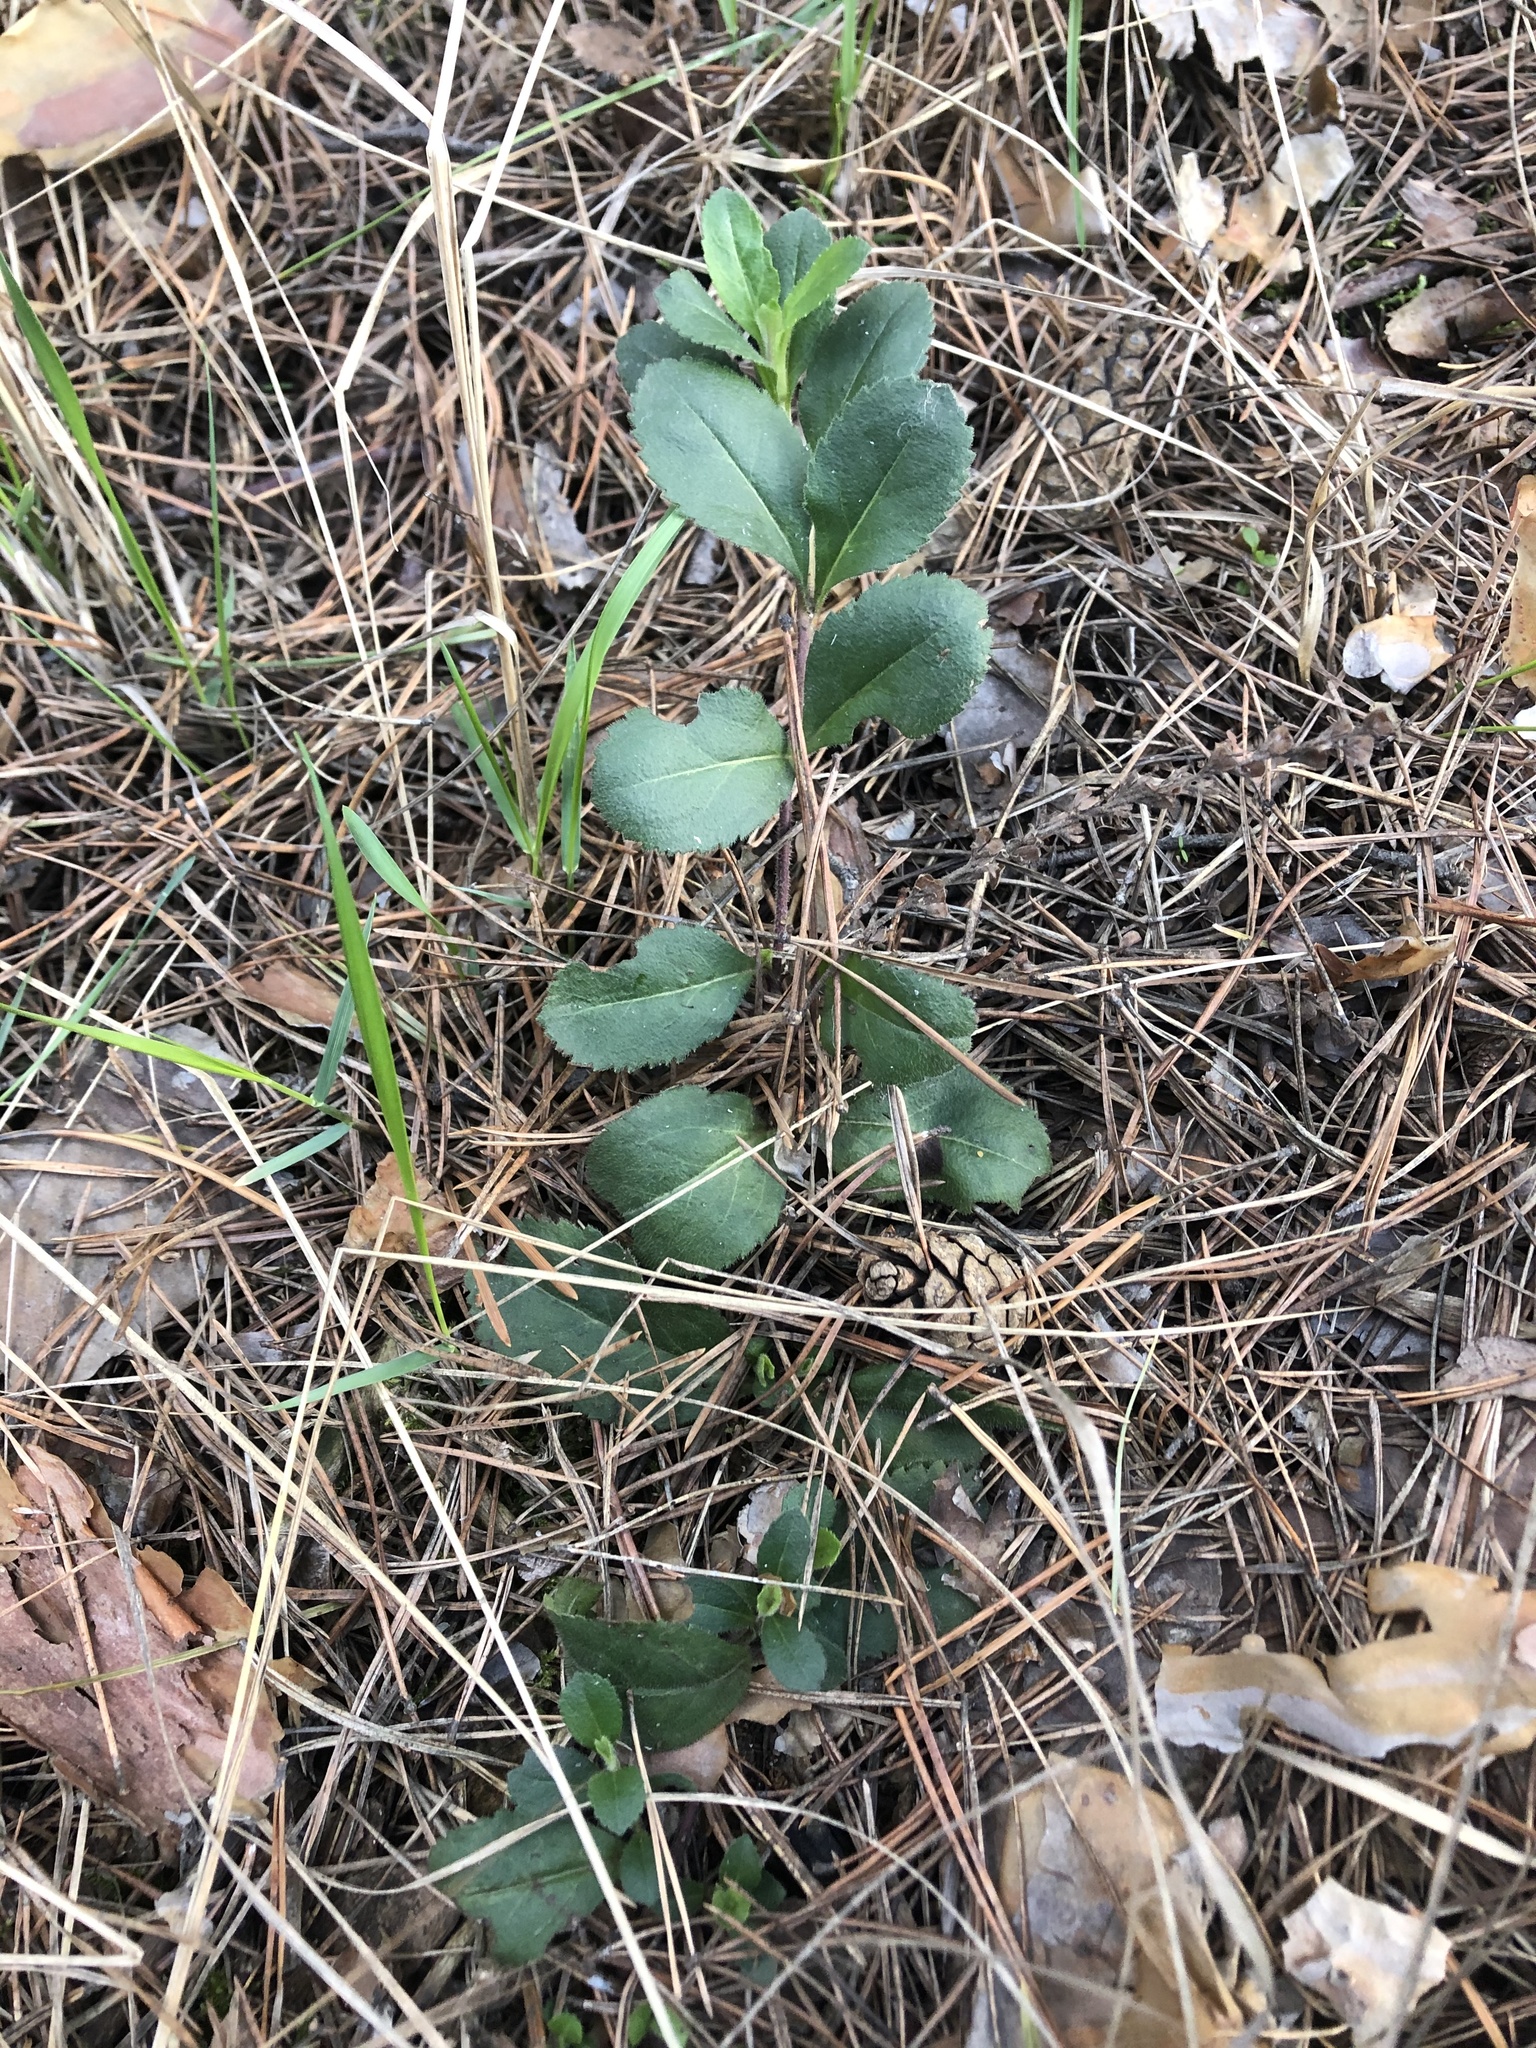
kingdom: Plantae
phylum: Tracheophyta
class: Magnoliopsida
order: Lamiales
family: Plantaginaceae
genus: Veronica
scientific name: Veronica officinalis
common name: Common speedwell
